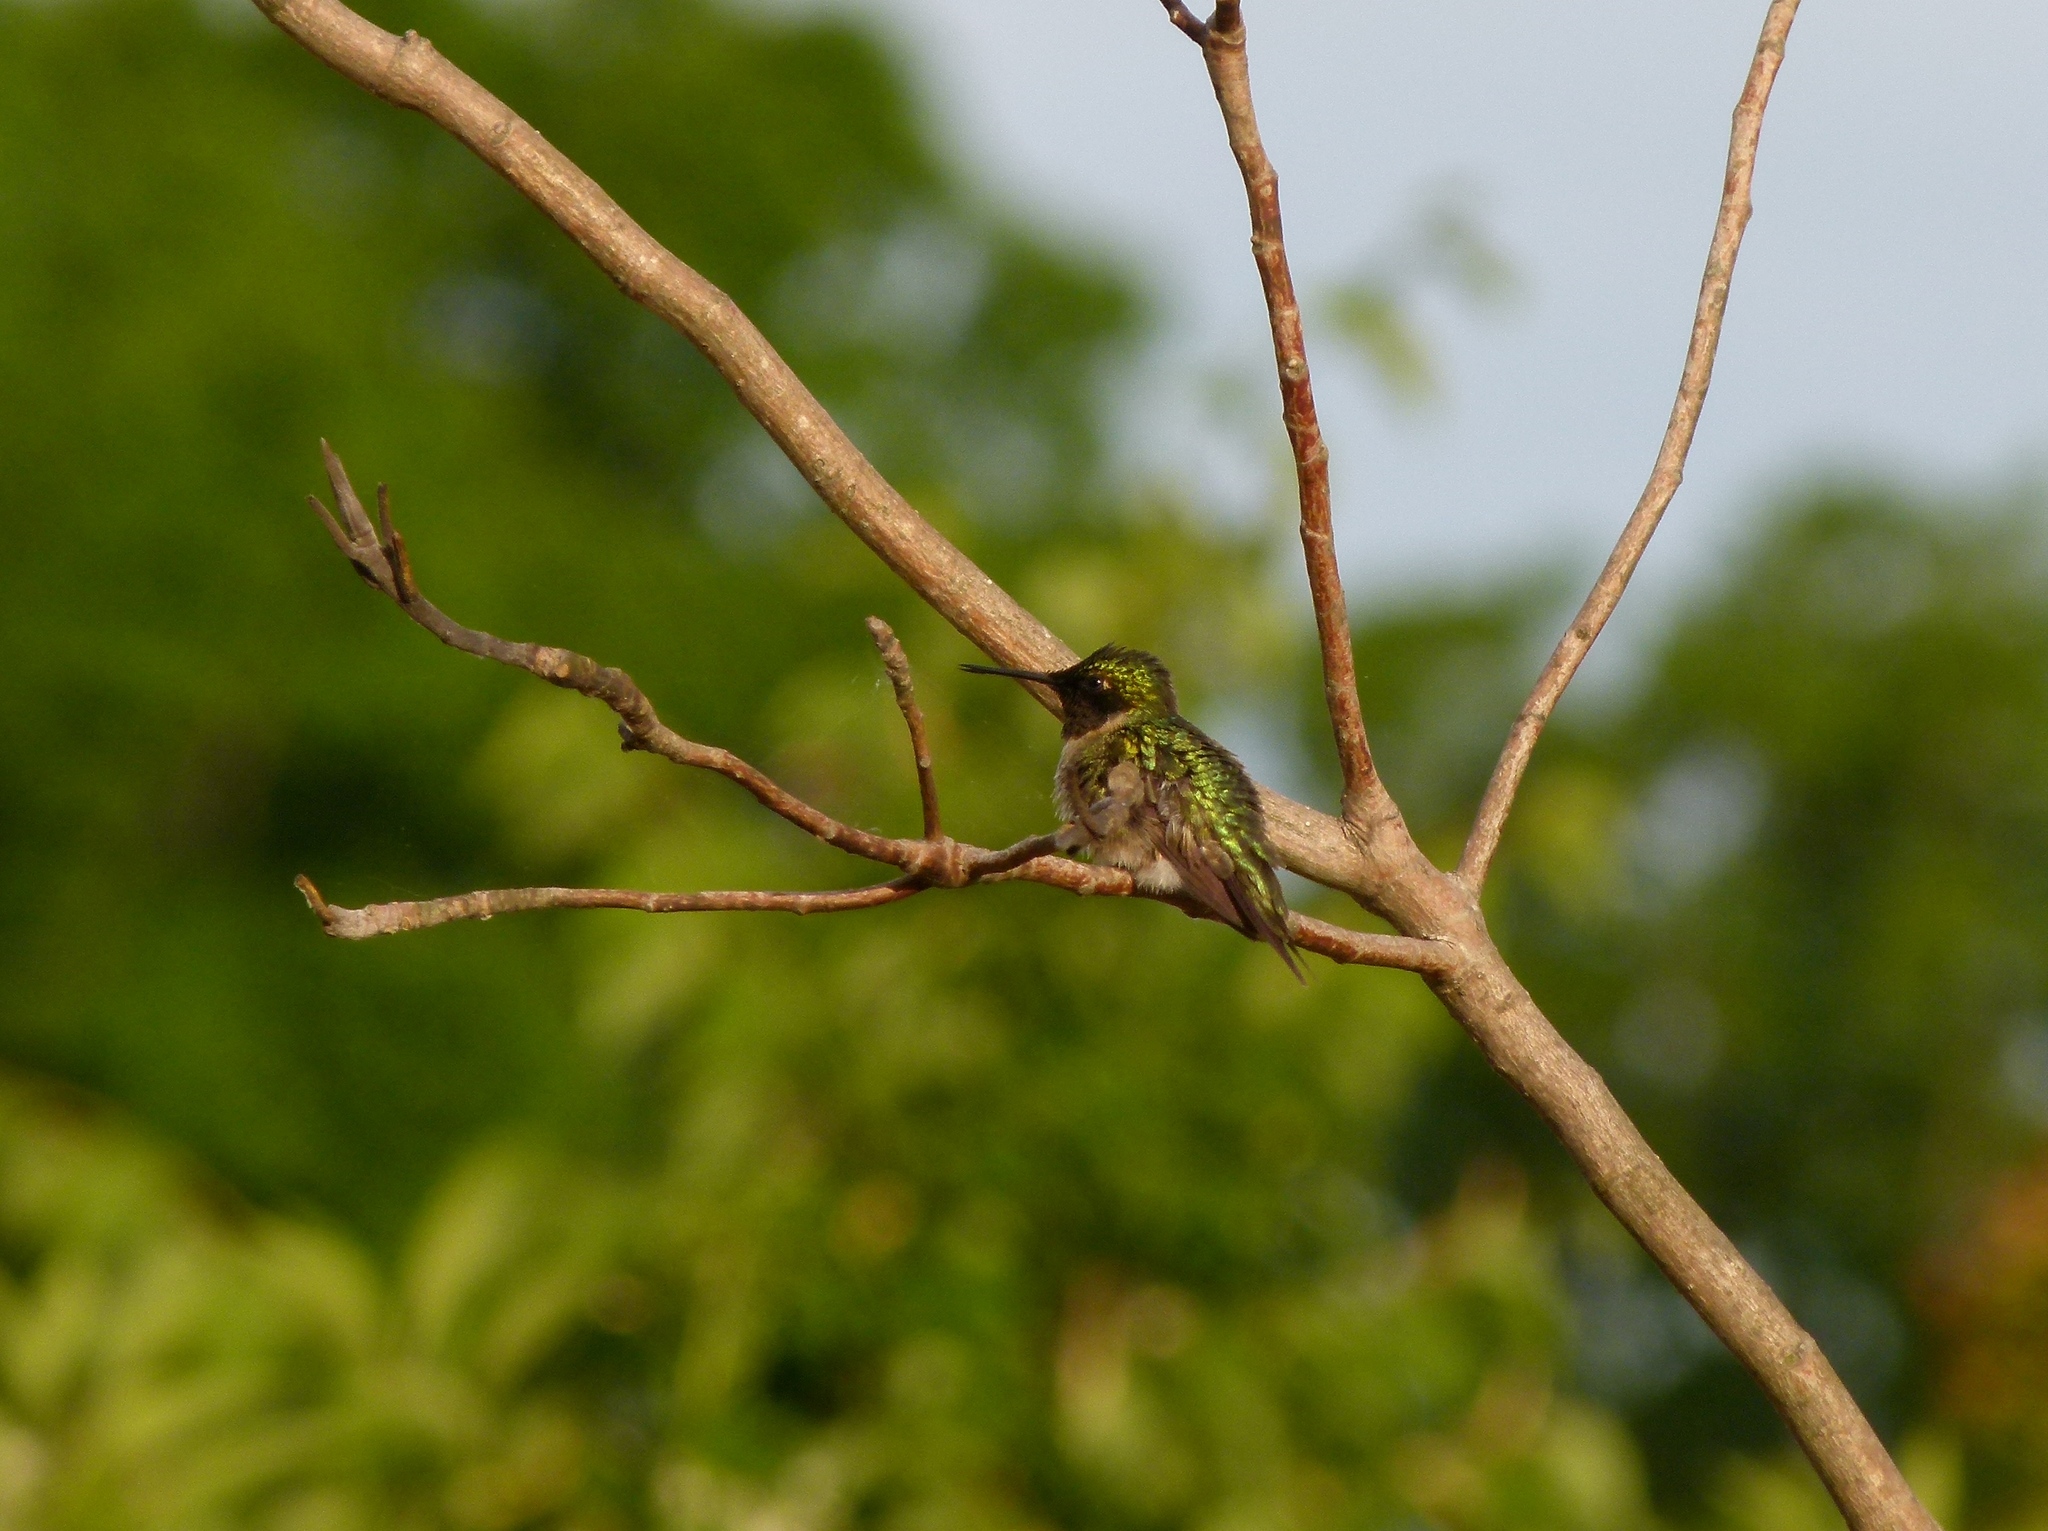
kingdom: Animalia
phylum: Chordata
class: Aves
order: Apodiformes
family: Trochilidae
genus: Archilochus
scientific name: Archilochus colubris
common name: Ruby-throated hummingbird
